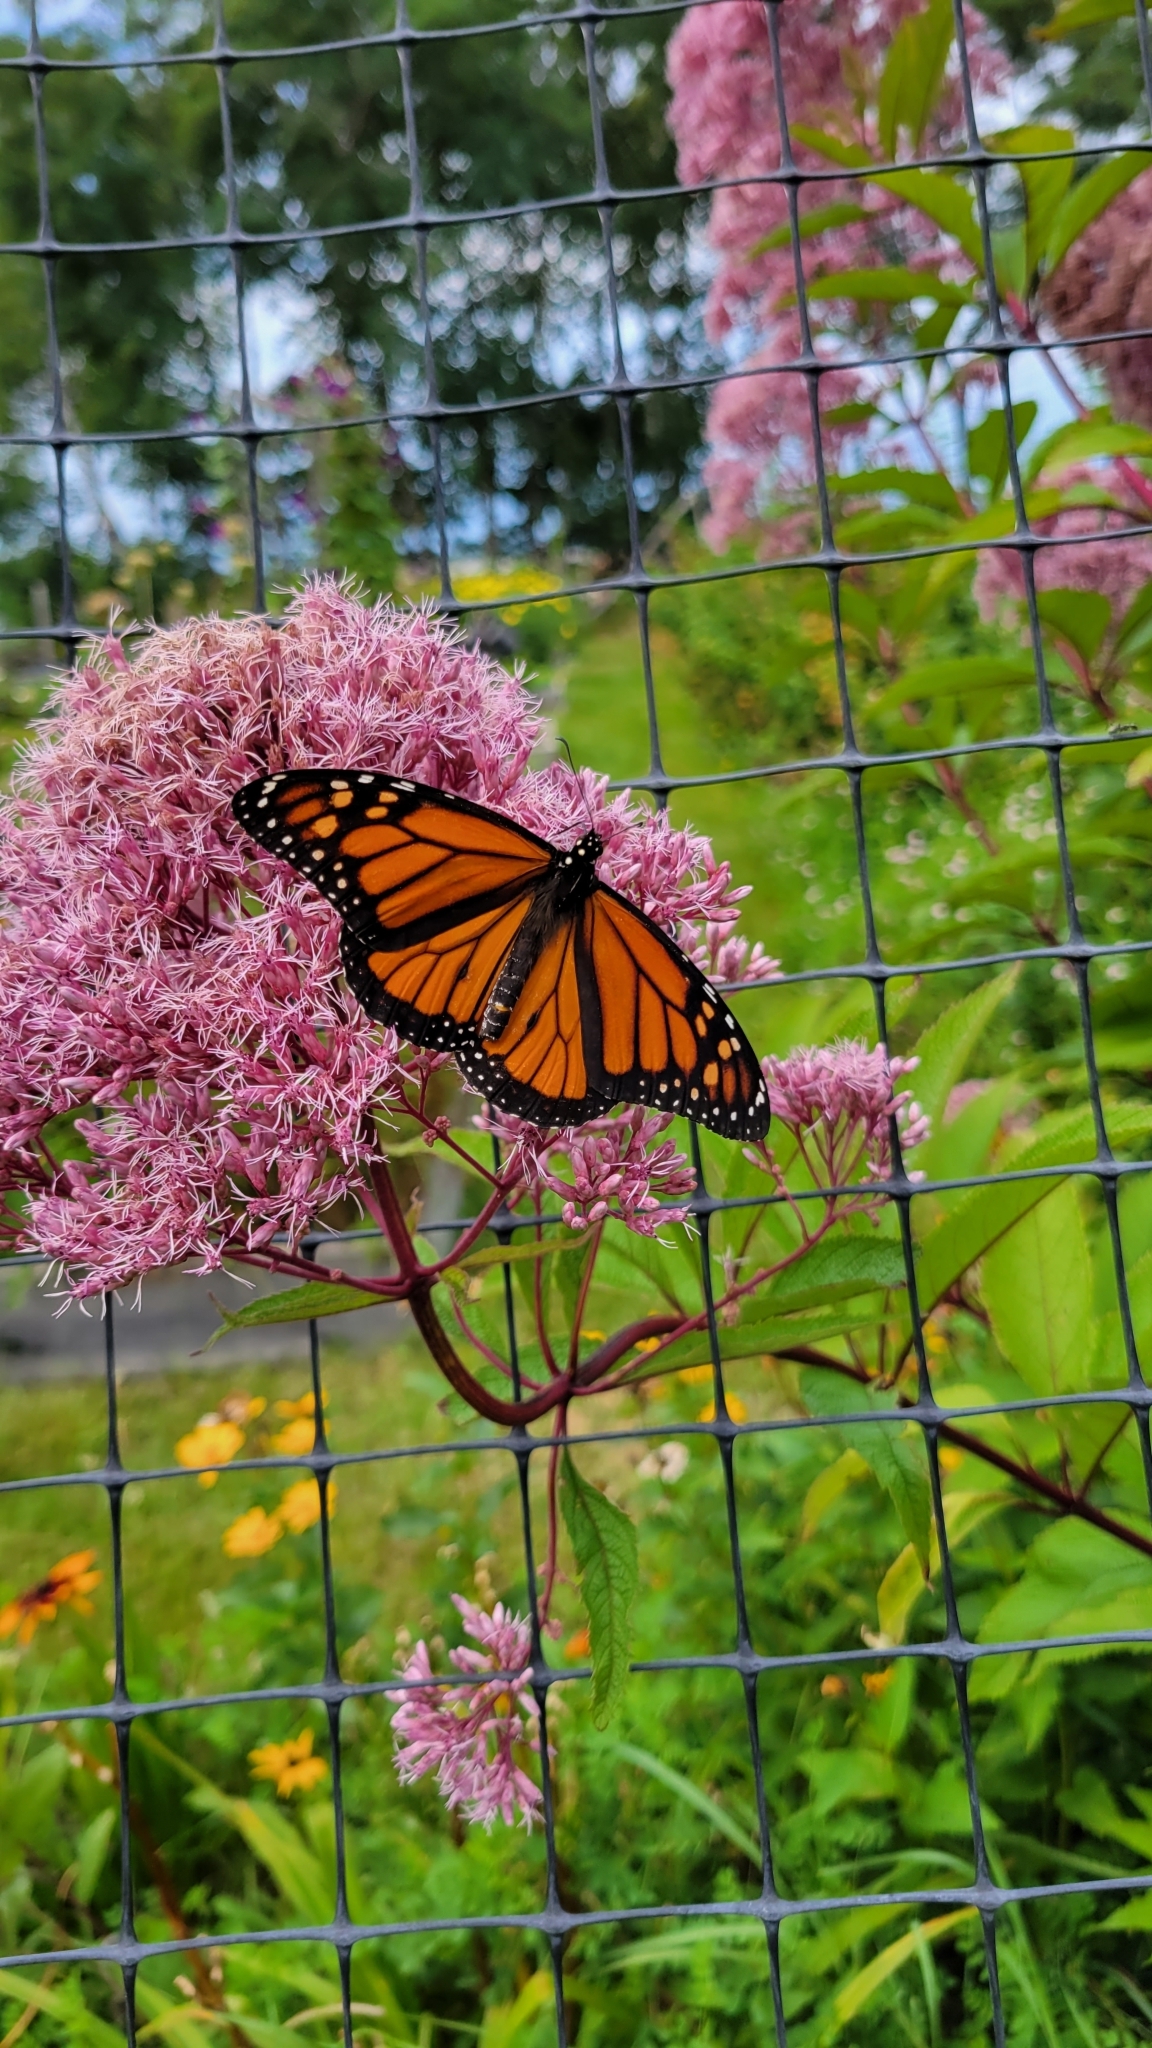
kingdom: Animalia
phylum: Arthropoda
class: Insecta
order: Lepidoptera
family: Nymphalidae
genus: Danaus
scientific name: Danaus plexippus
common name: Monarch
